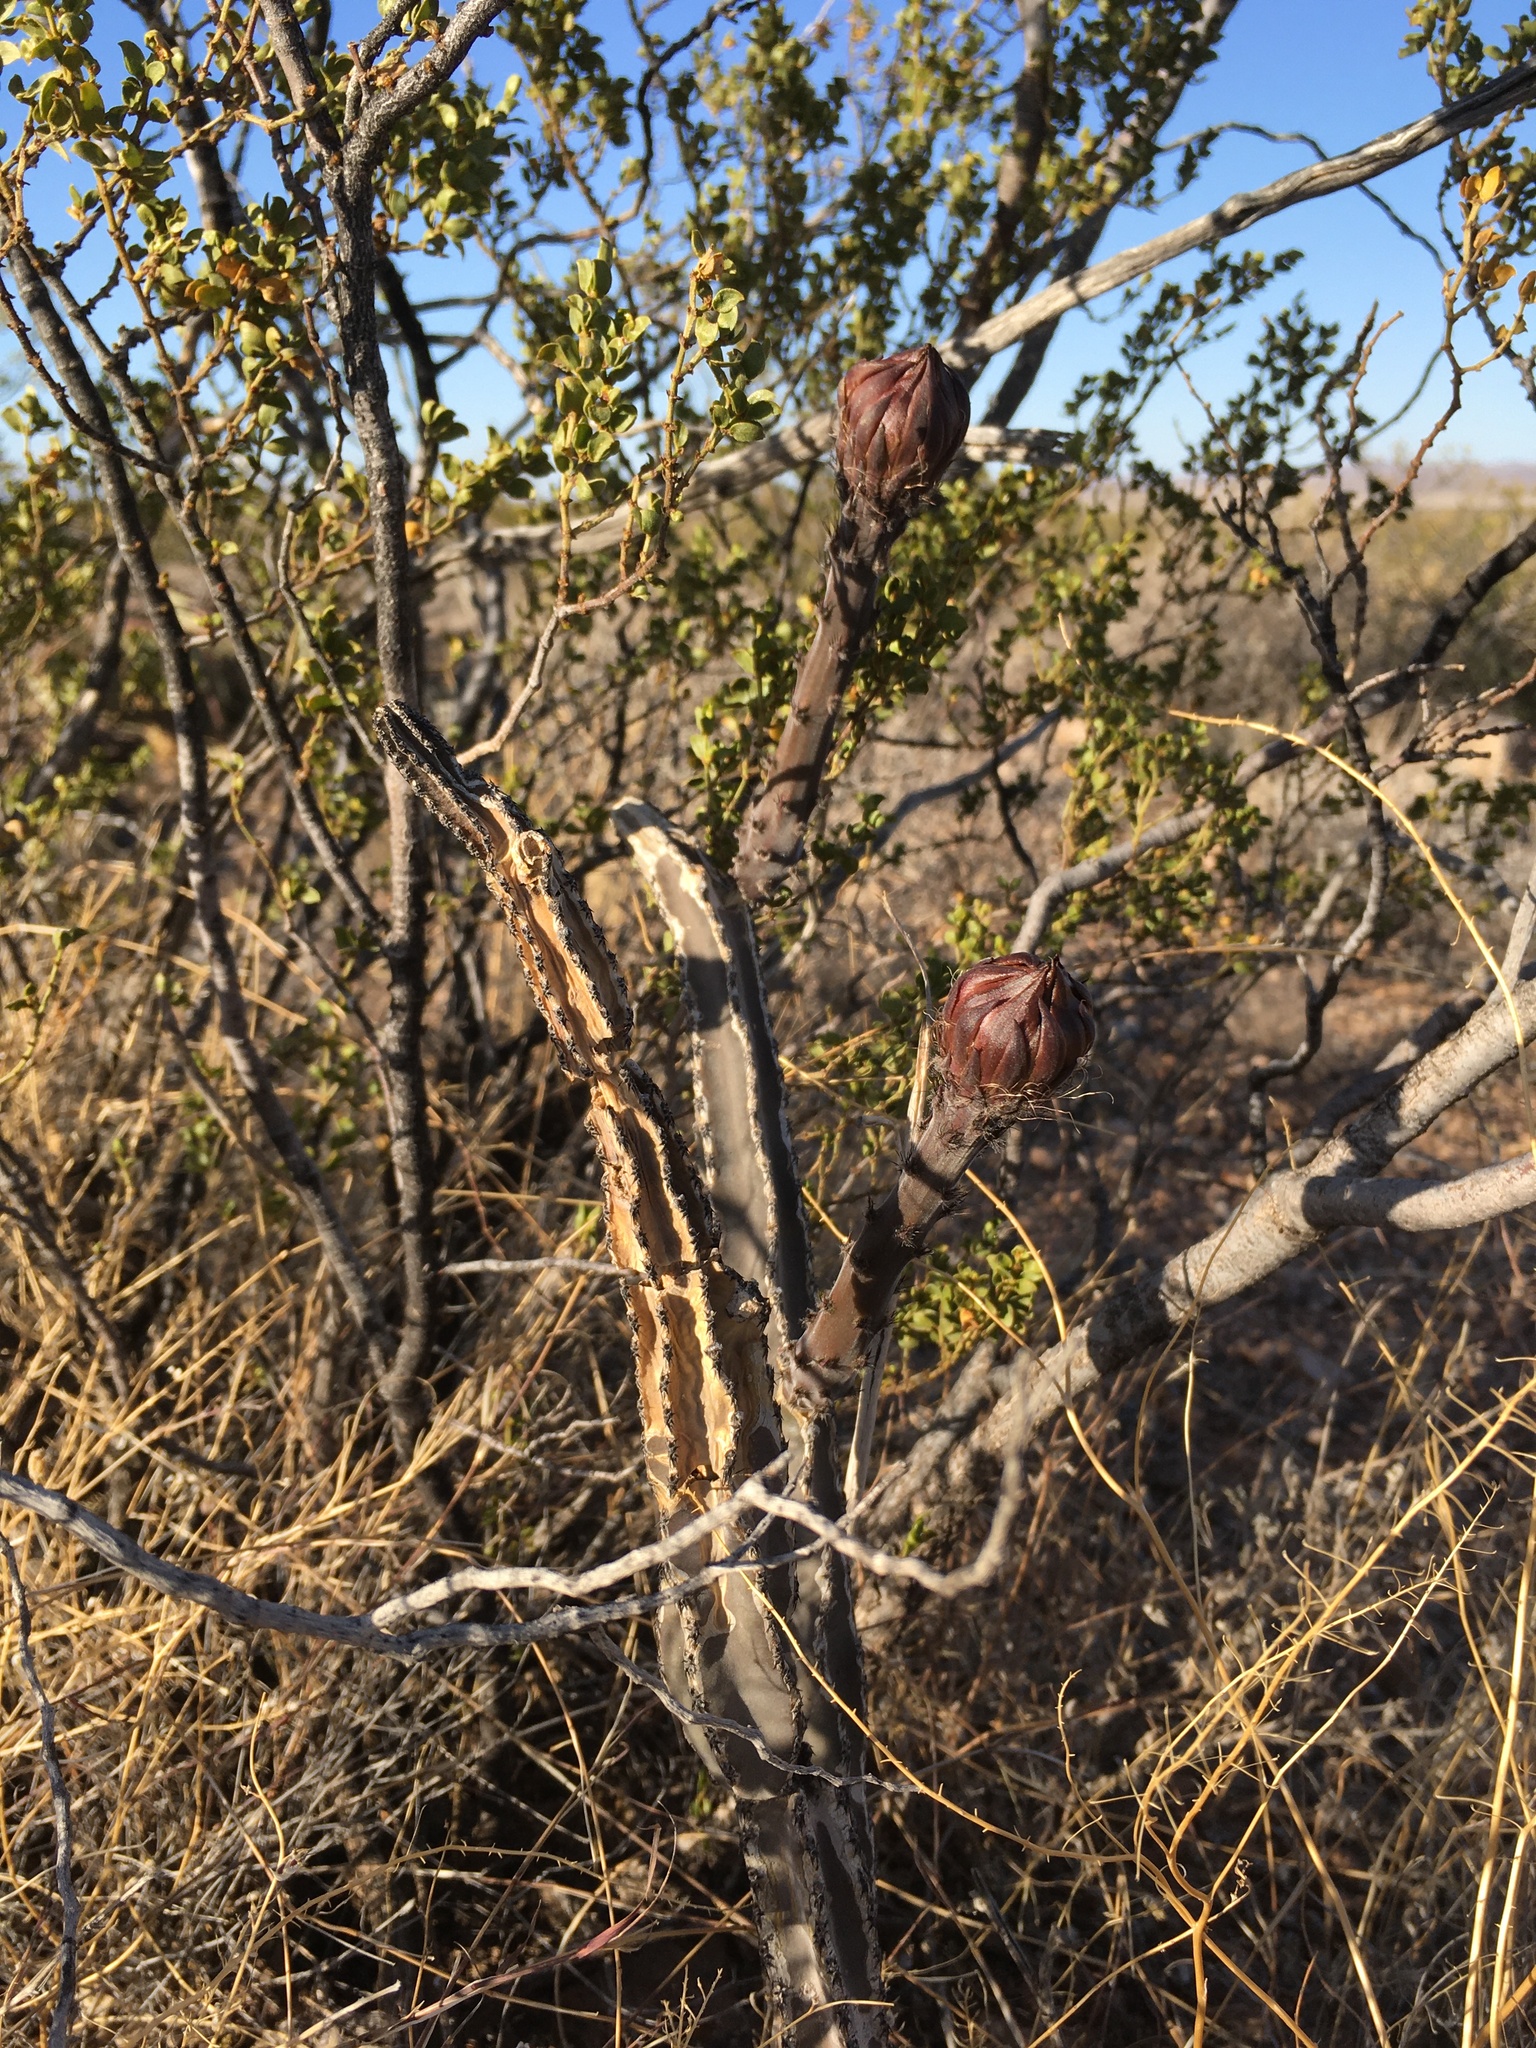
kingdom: Plantae
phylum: Tracheophyta
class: Magnoliopsida
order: Caryophyllales
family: Cactaceae
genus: Peniocereus
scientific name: Peniocereus greggii
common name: Desert night-blooming cereus
